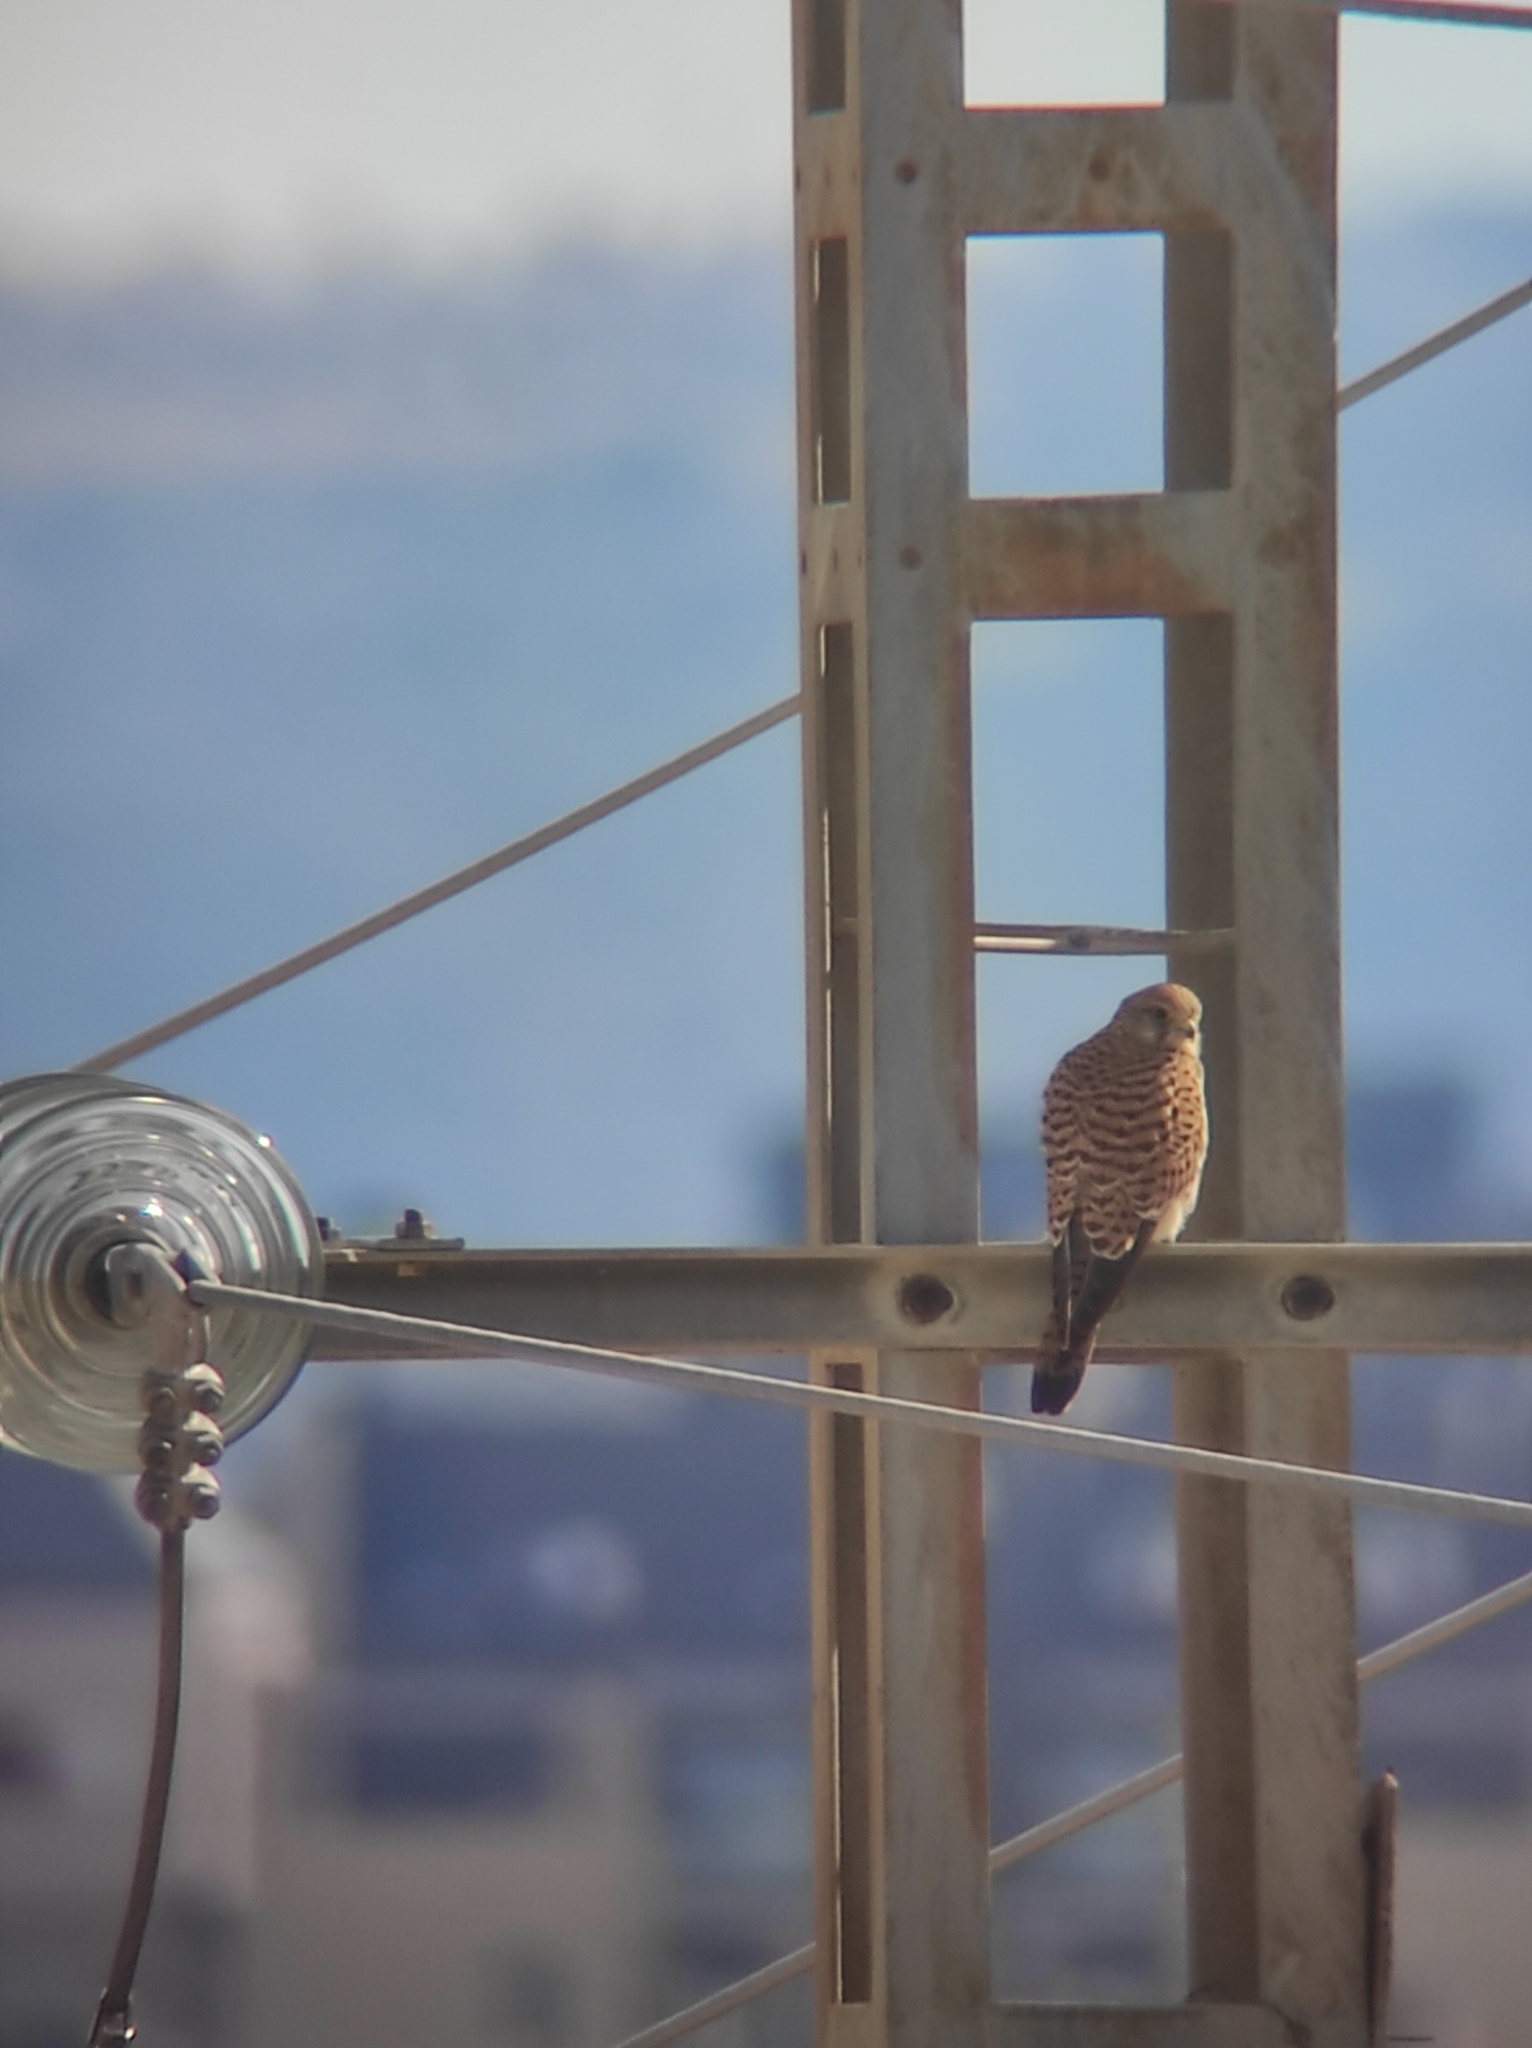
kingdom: Animalia
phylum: Chordata
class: Aves
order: Falconiformes
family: Falconidae
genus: Falco
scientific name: Falco tinnunculus
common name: Common kestrel
